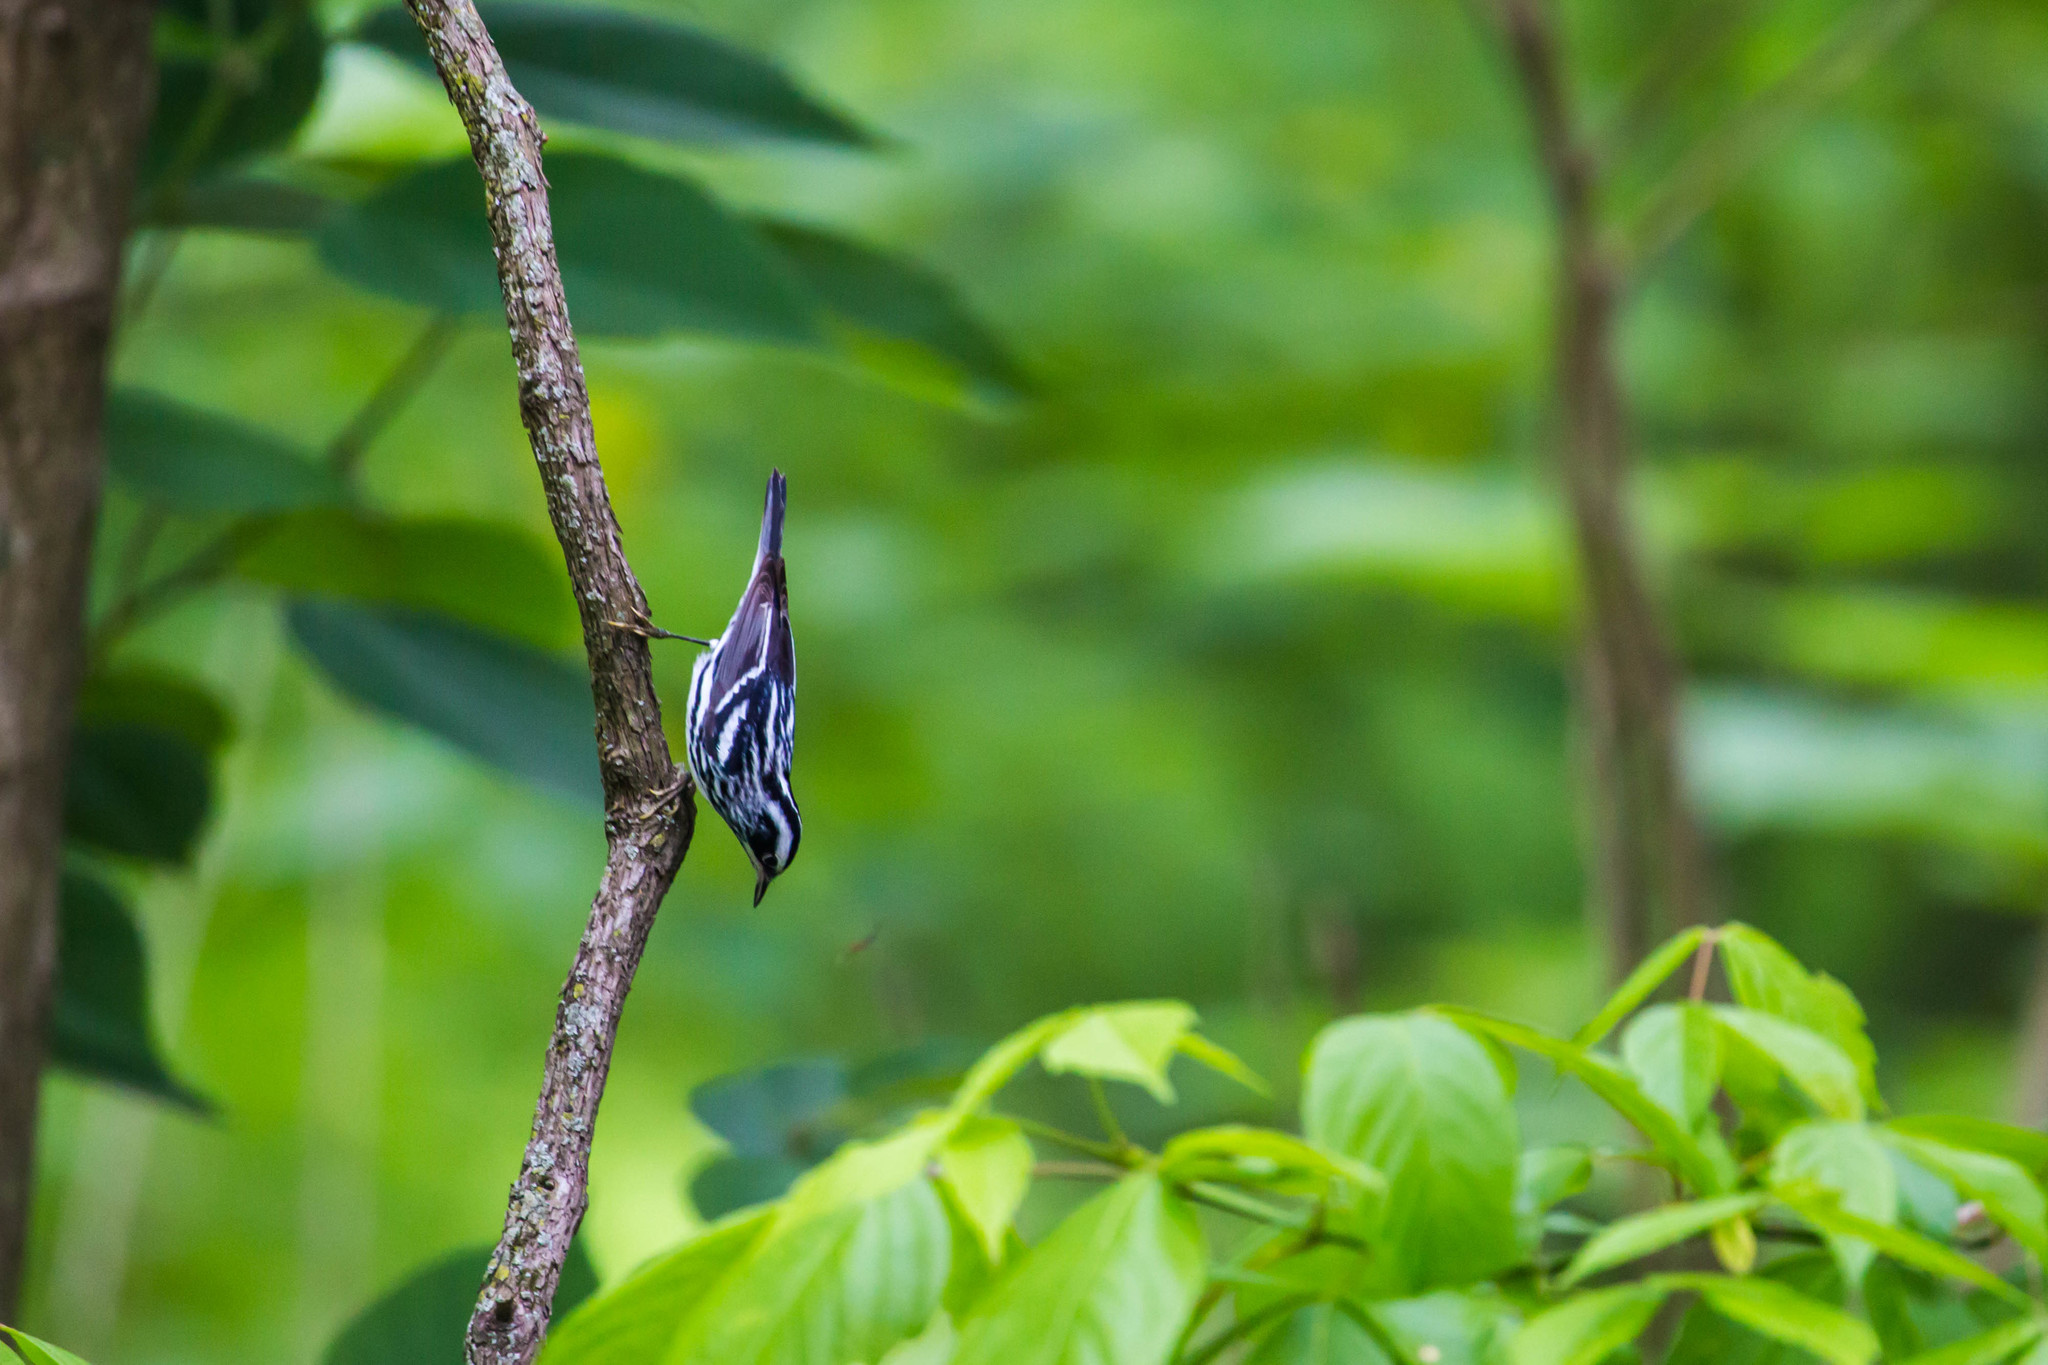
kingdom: Animalia
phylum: Chordata
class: Aves
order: Passeriformes
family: Parulidae
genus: Mniotilta
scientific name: Mniotilta varia
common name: Black-and-white warbler
